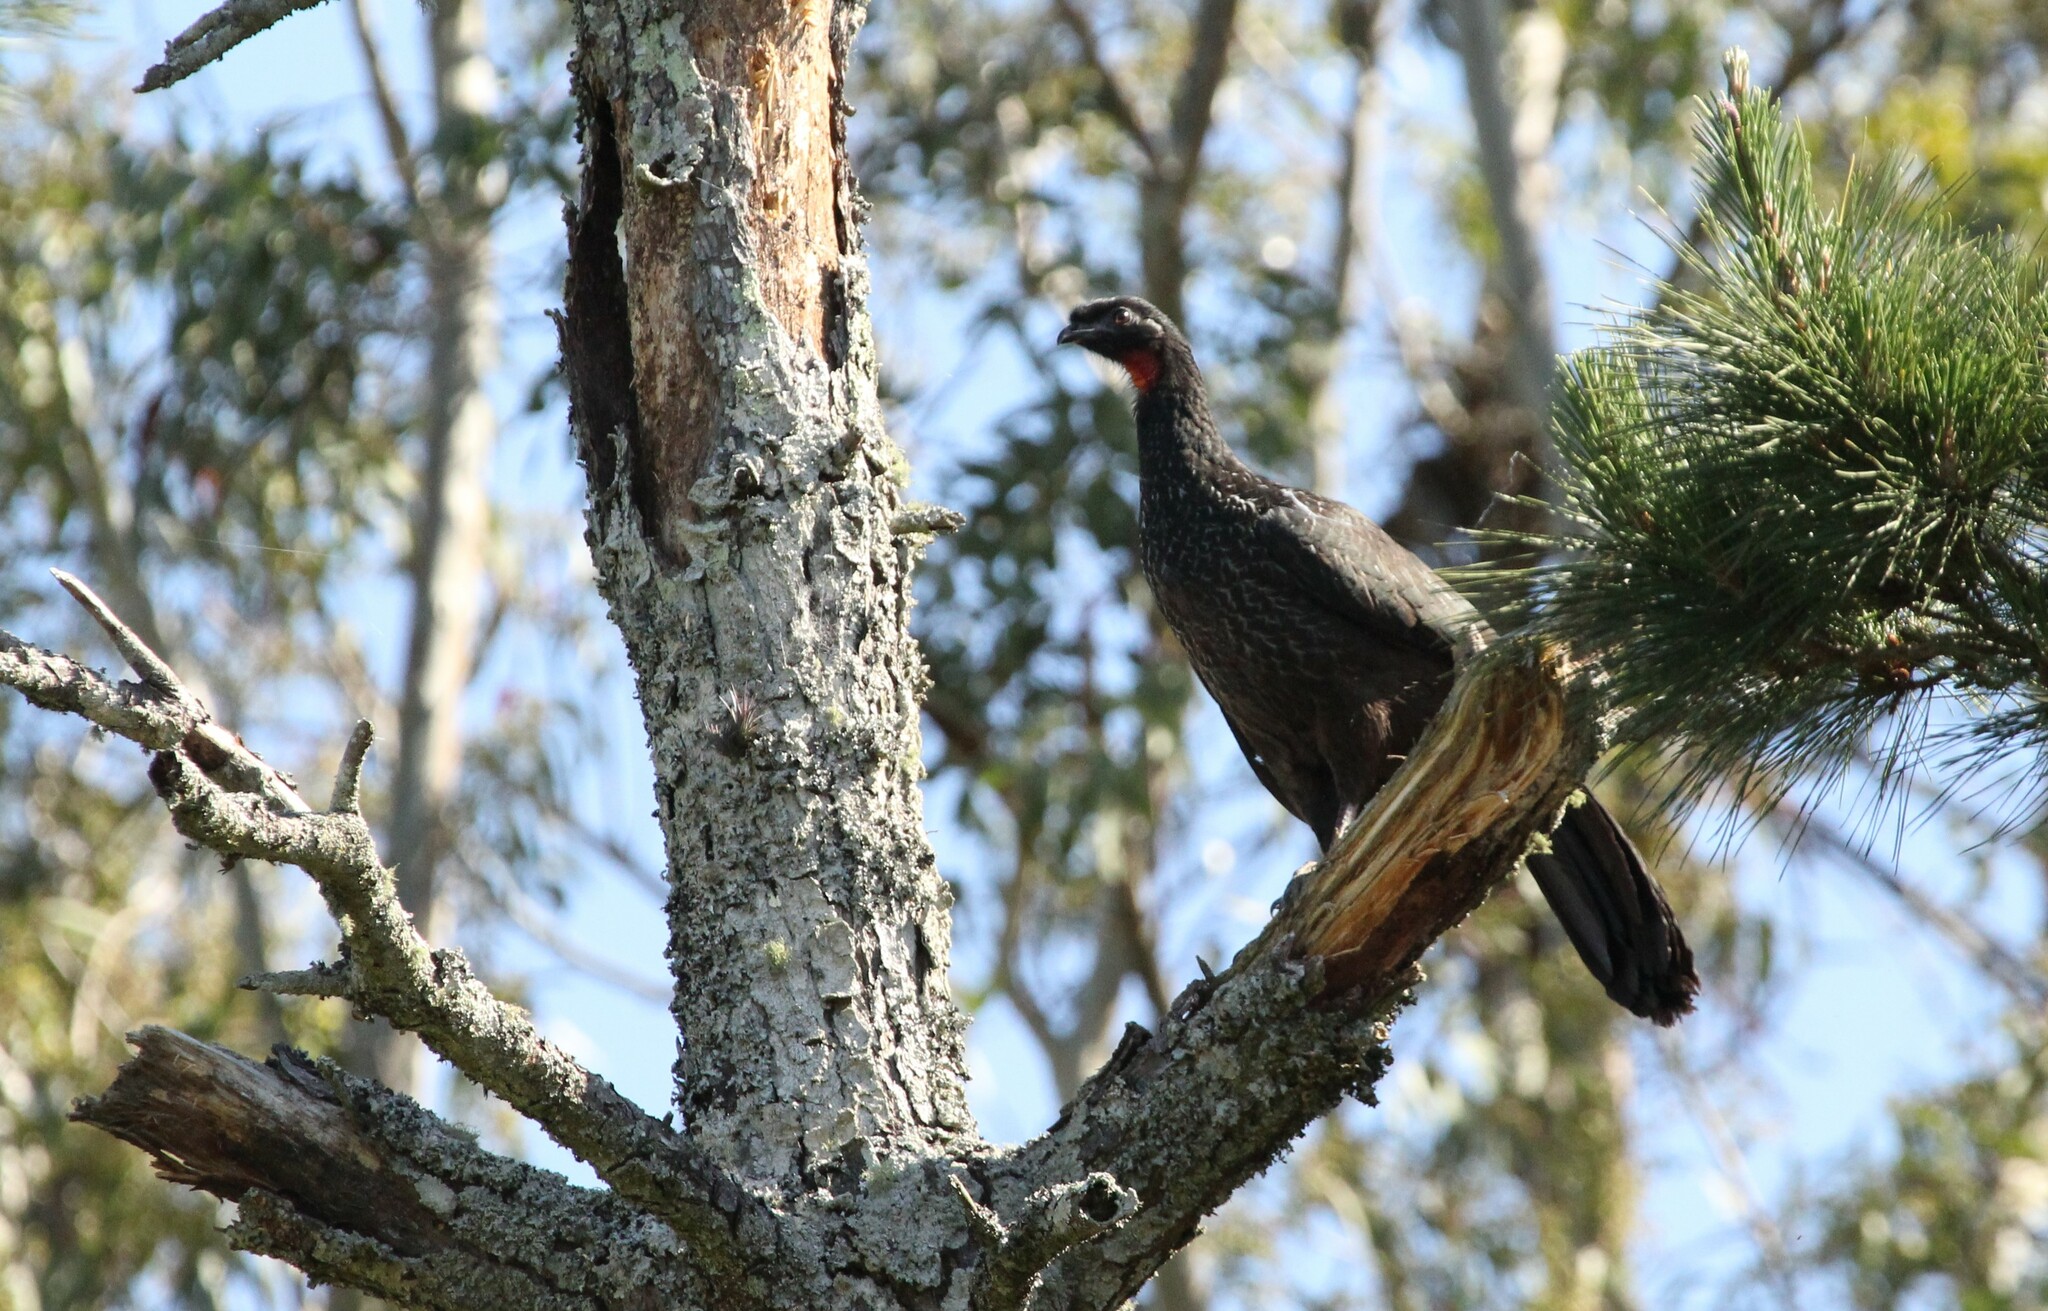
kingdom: Animalia
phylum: Chordata
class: Aves
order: Galliformes
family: Cracidae
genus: Penelope
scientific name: Penelope obscura
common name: Dusky-legged guan
